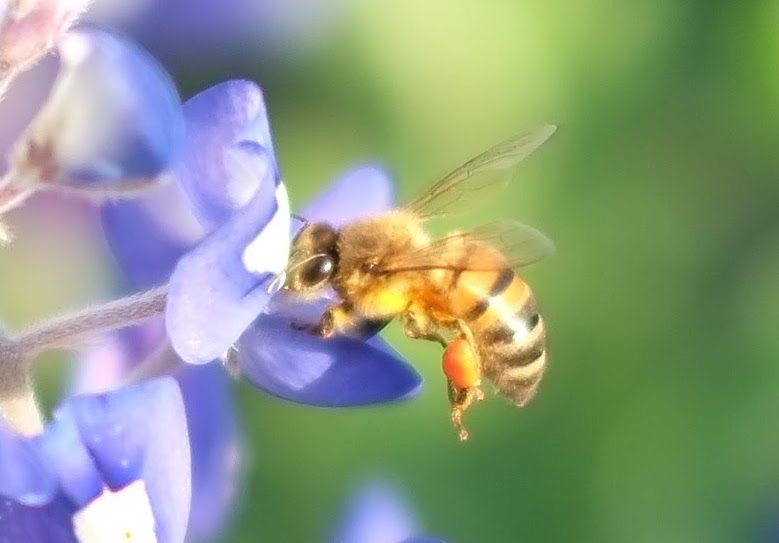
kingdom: Animalia
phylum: Arthropoda
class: Insecta
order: Hymenoptera
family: Apidae
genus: Apis
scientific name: Apis mellifera
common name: Honey bee
